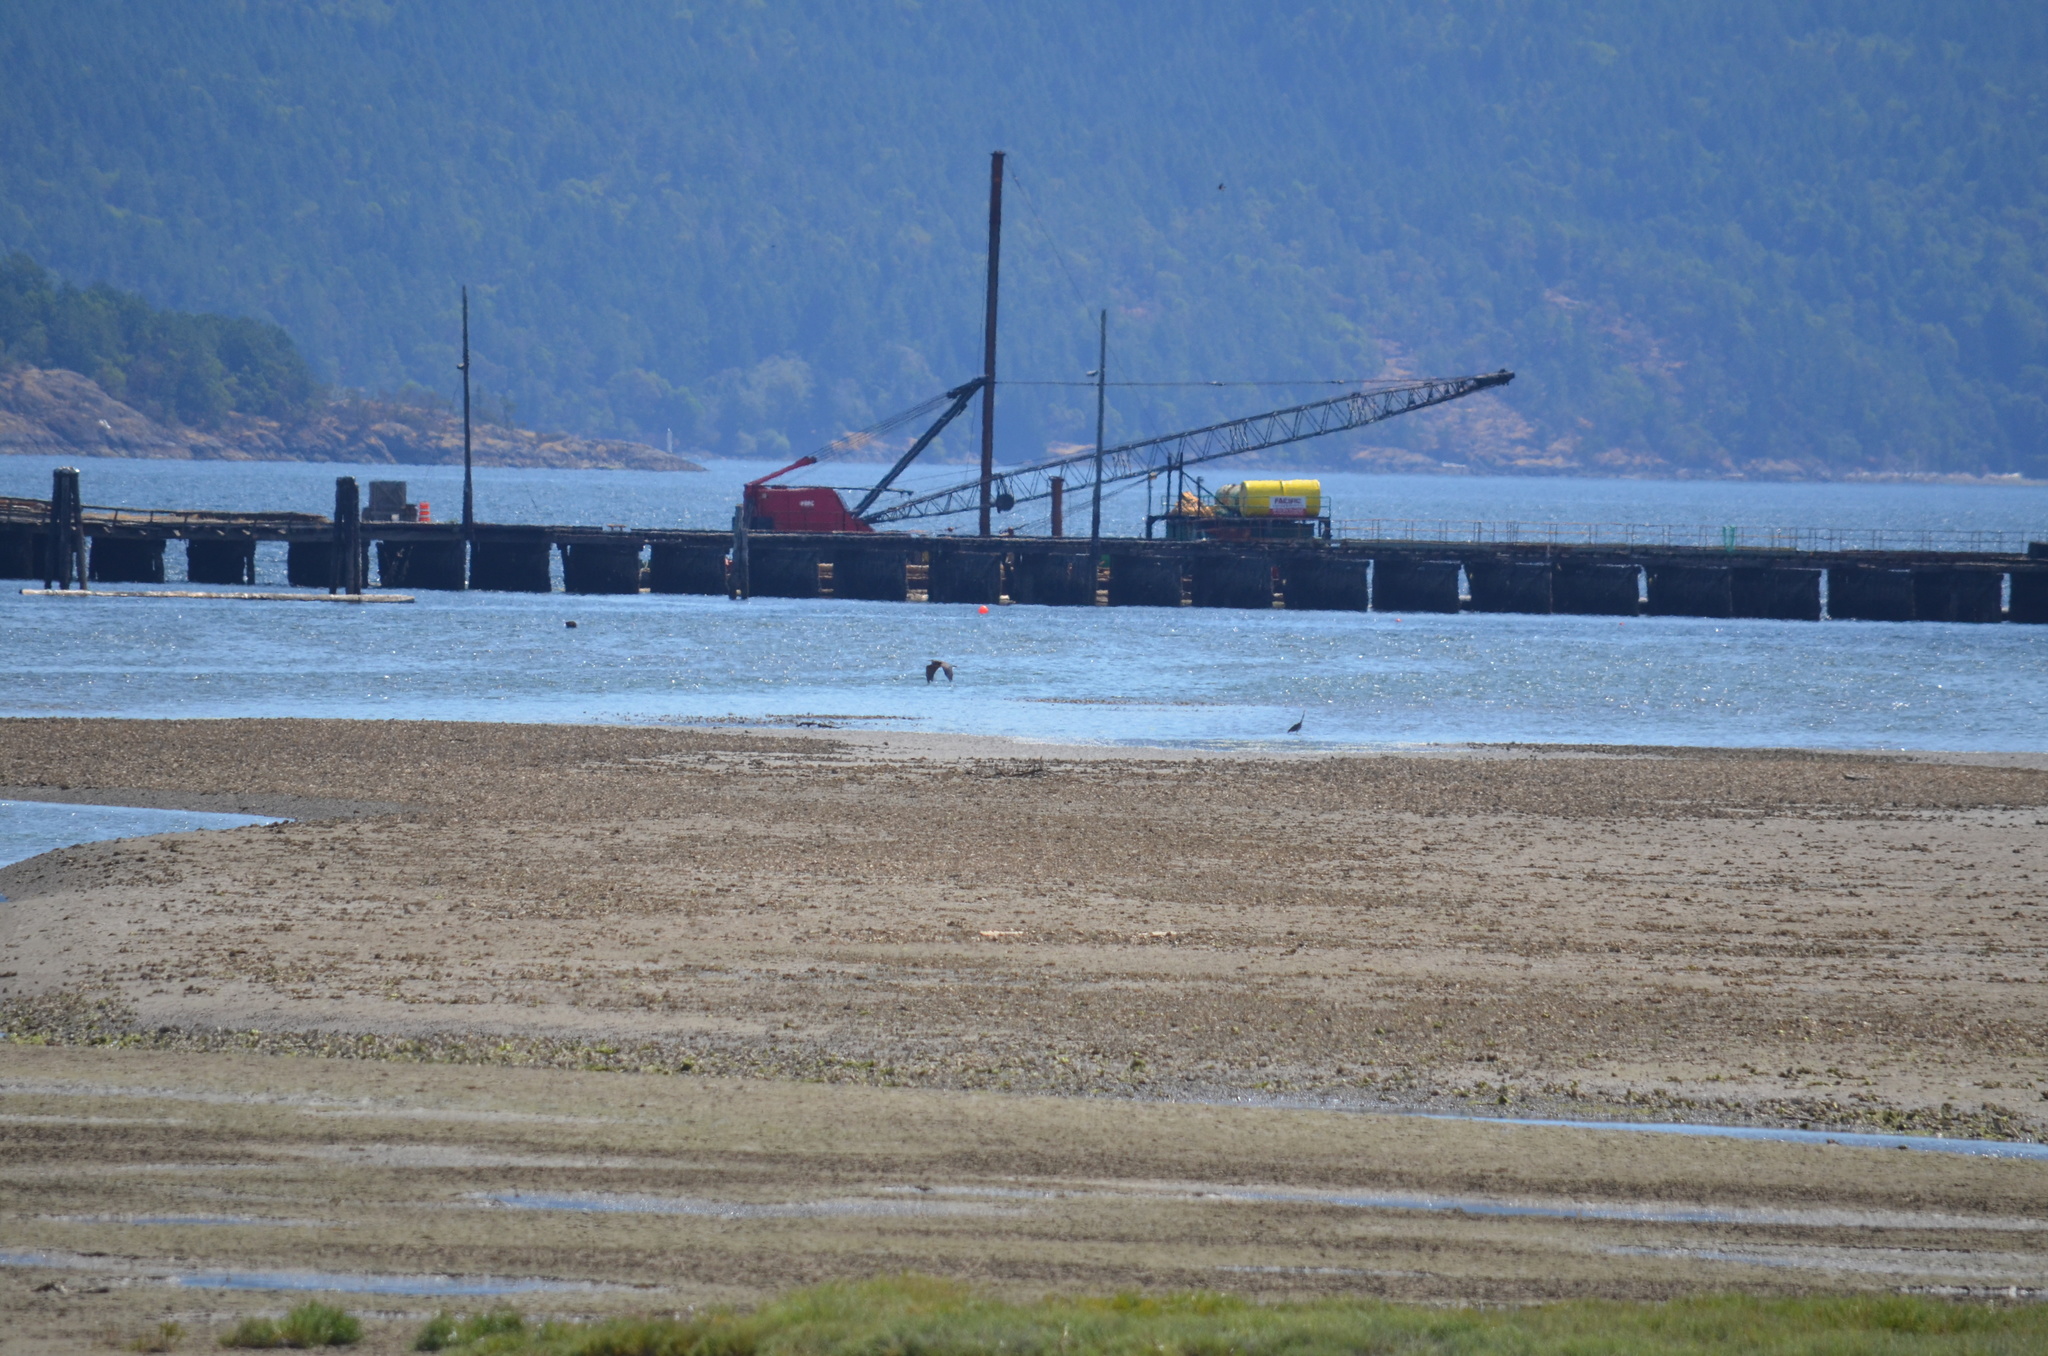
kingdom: Animalia
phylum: Chordata
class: Aves
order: Pelecaniformes
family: Ardeidae
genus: Ardea
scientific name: Ardea herodias
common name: Great blue heron
